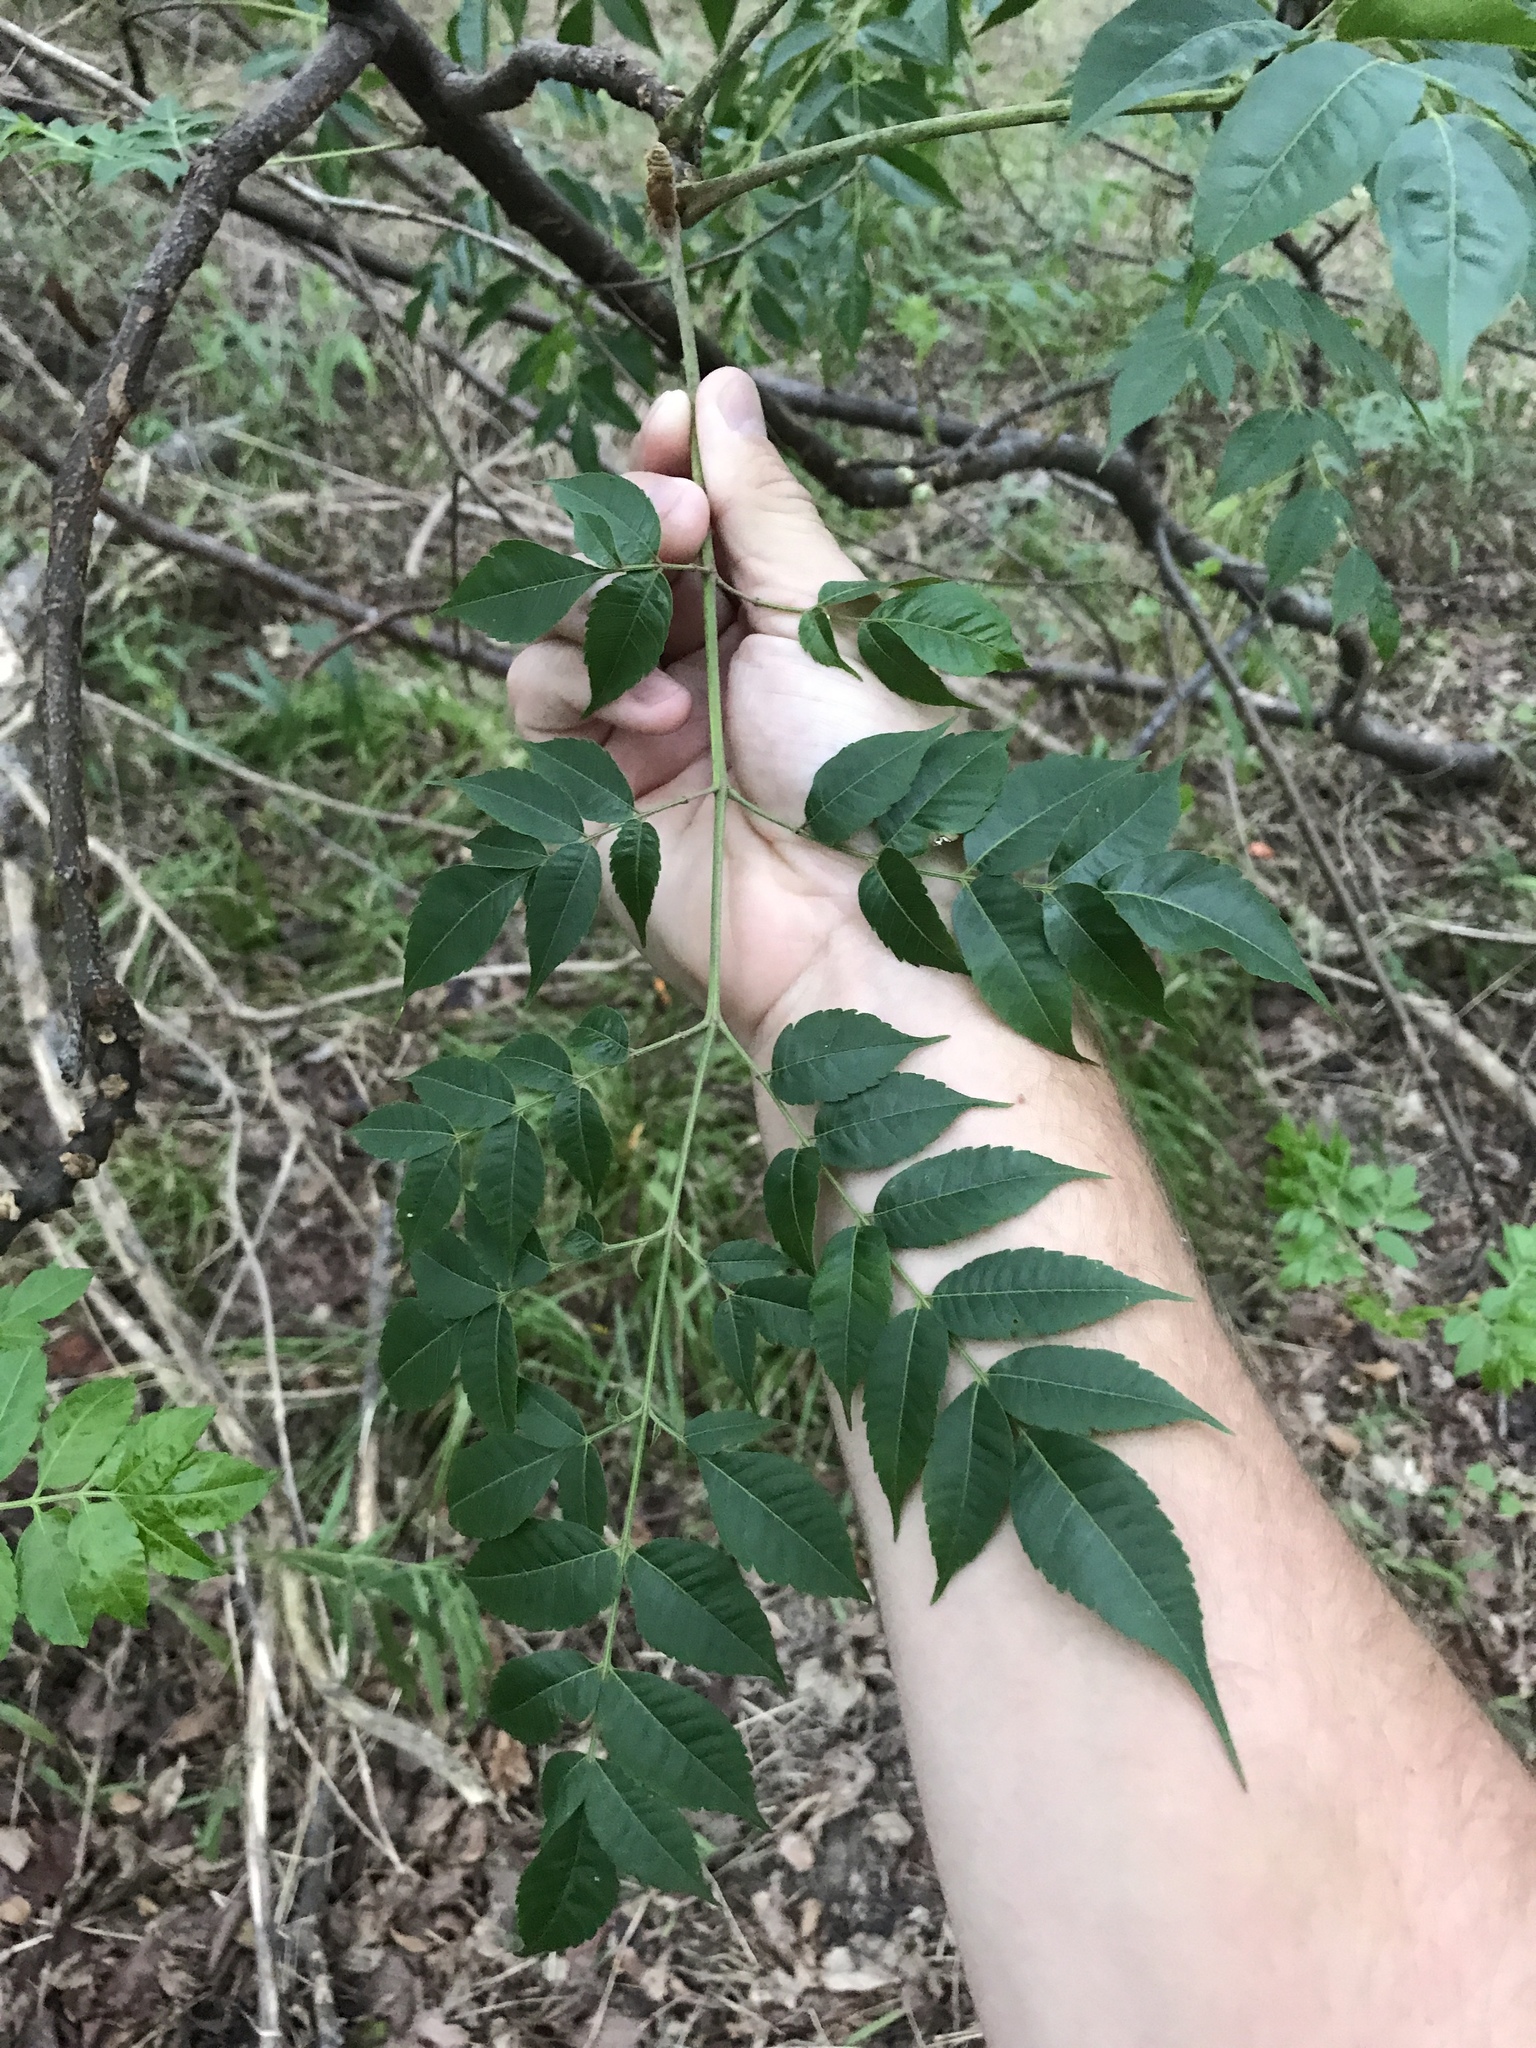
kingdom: Plantae
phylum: Tracheophyta
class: Magnoliopsida
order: Sapindales
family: Meliaceae
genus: Melia
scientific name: Melia azedarach
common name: Chinaberrytree
